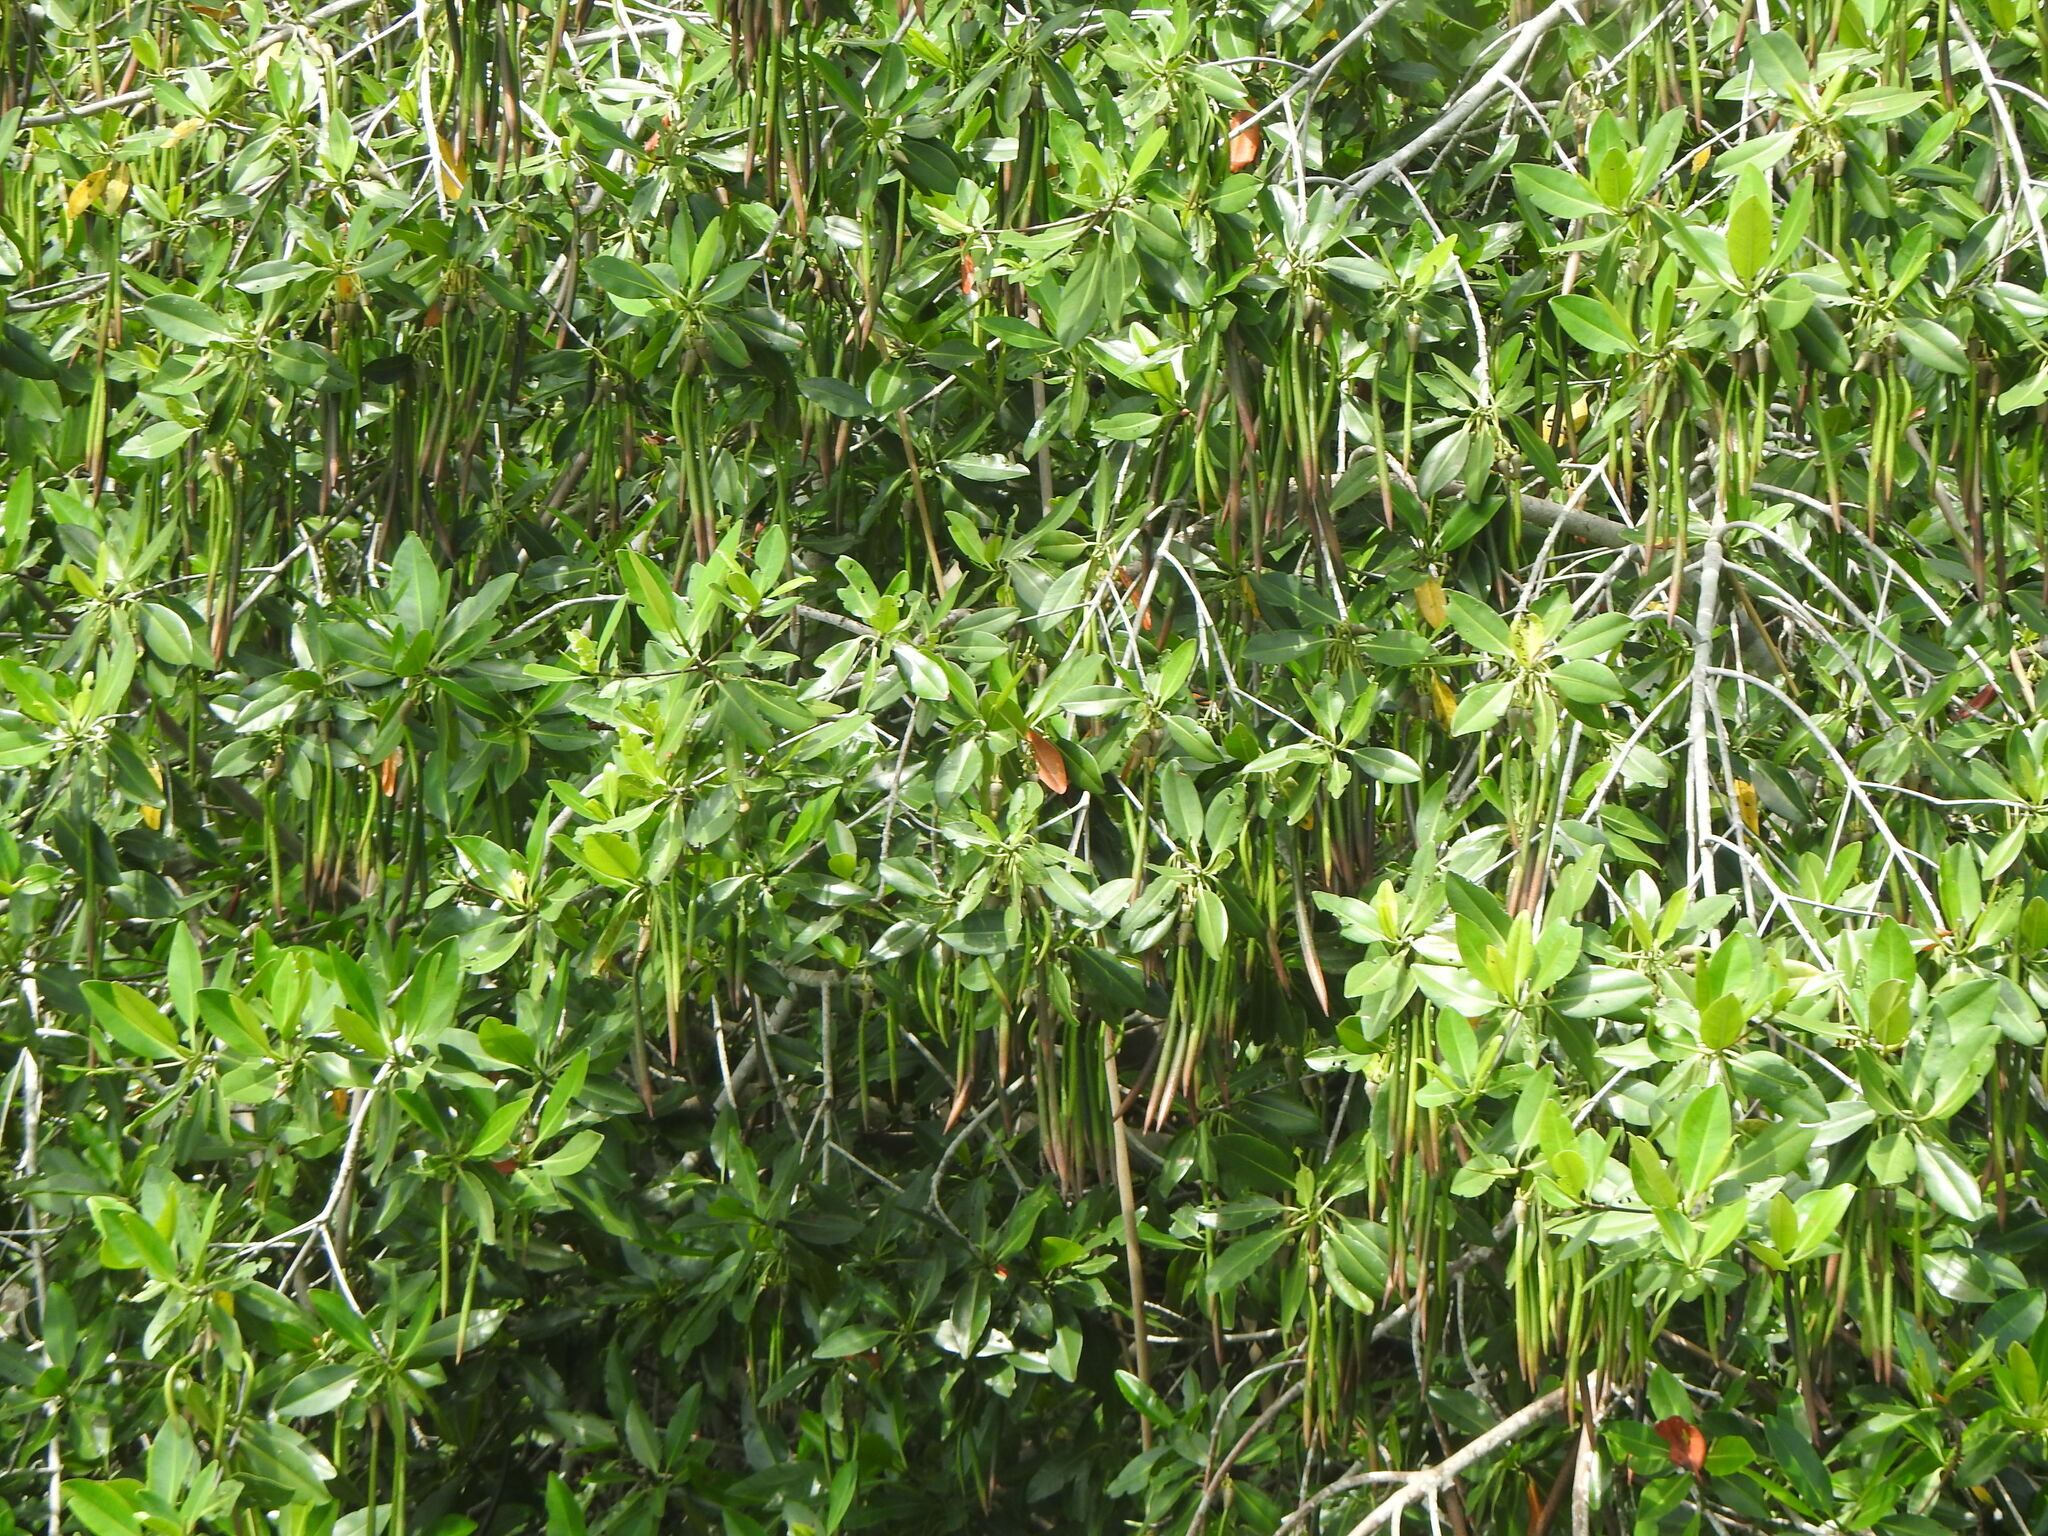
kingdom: Plantae
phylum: Tracheophyta
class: Magnoliopsida
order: Malpighiales
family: Rhizophoraceae
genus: Rhizophora
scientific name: Rhizophora mangle
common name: Red mangrove
